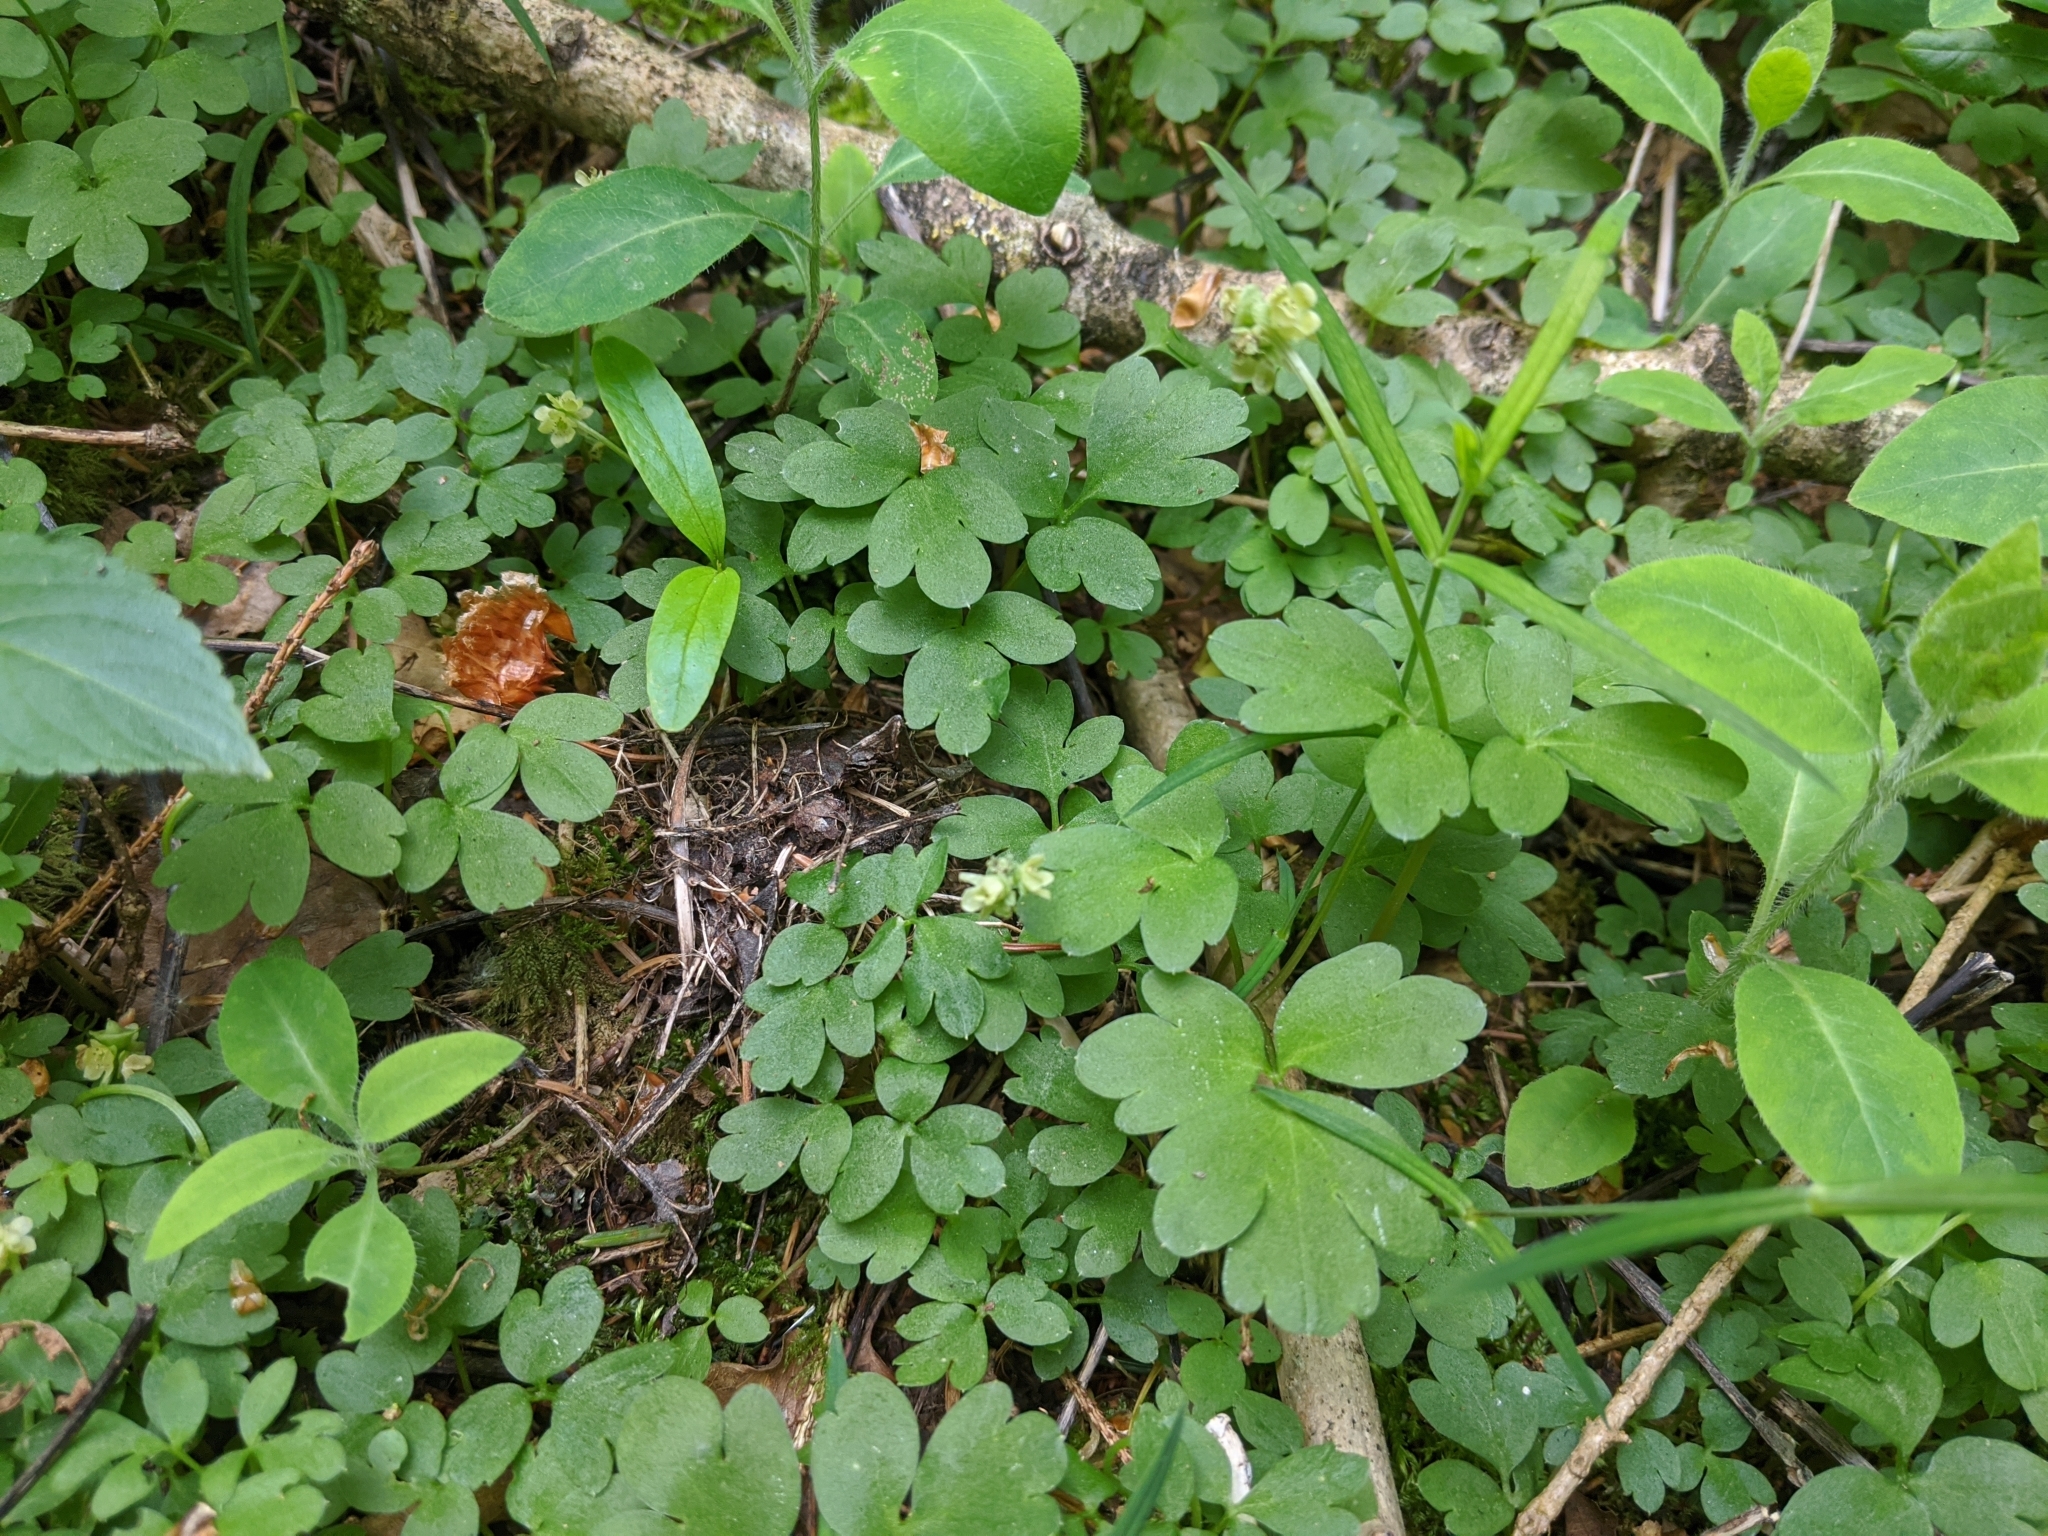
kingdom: Plantae
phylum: Tracheophyta
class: Magnoliopsida
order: Dipsacales
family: Viburnaceae
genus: Adoxa
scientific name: Adoxa moschatellina
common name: Moschatel
